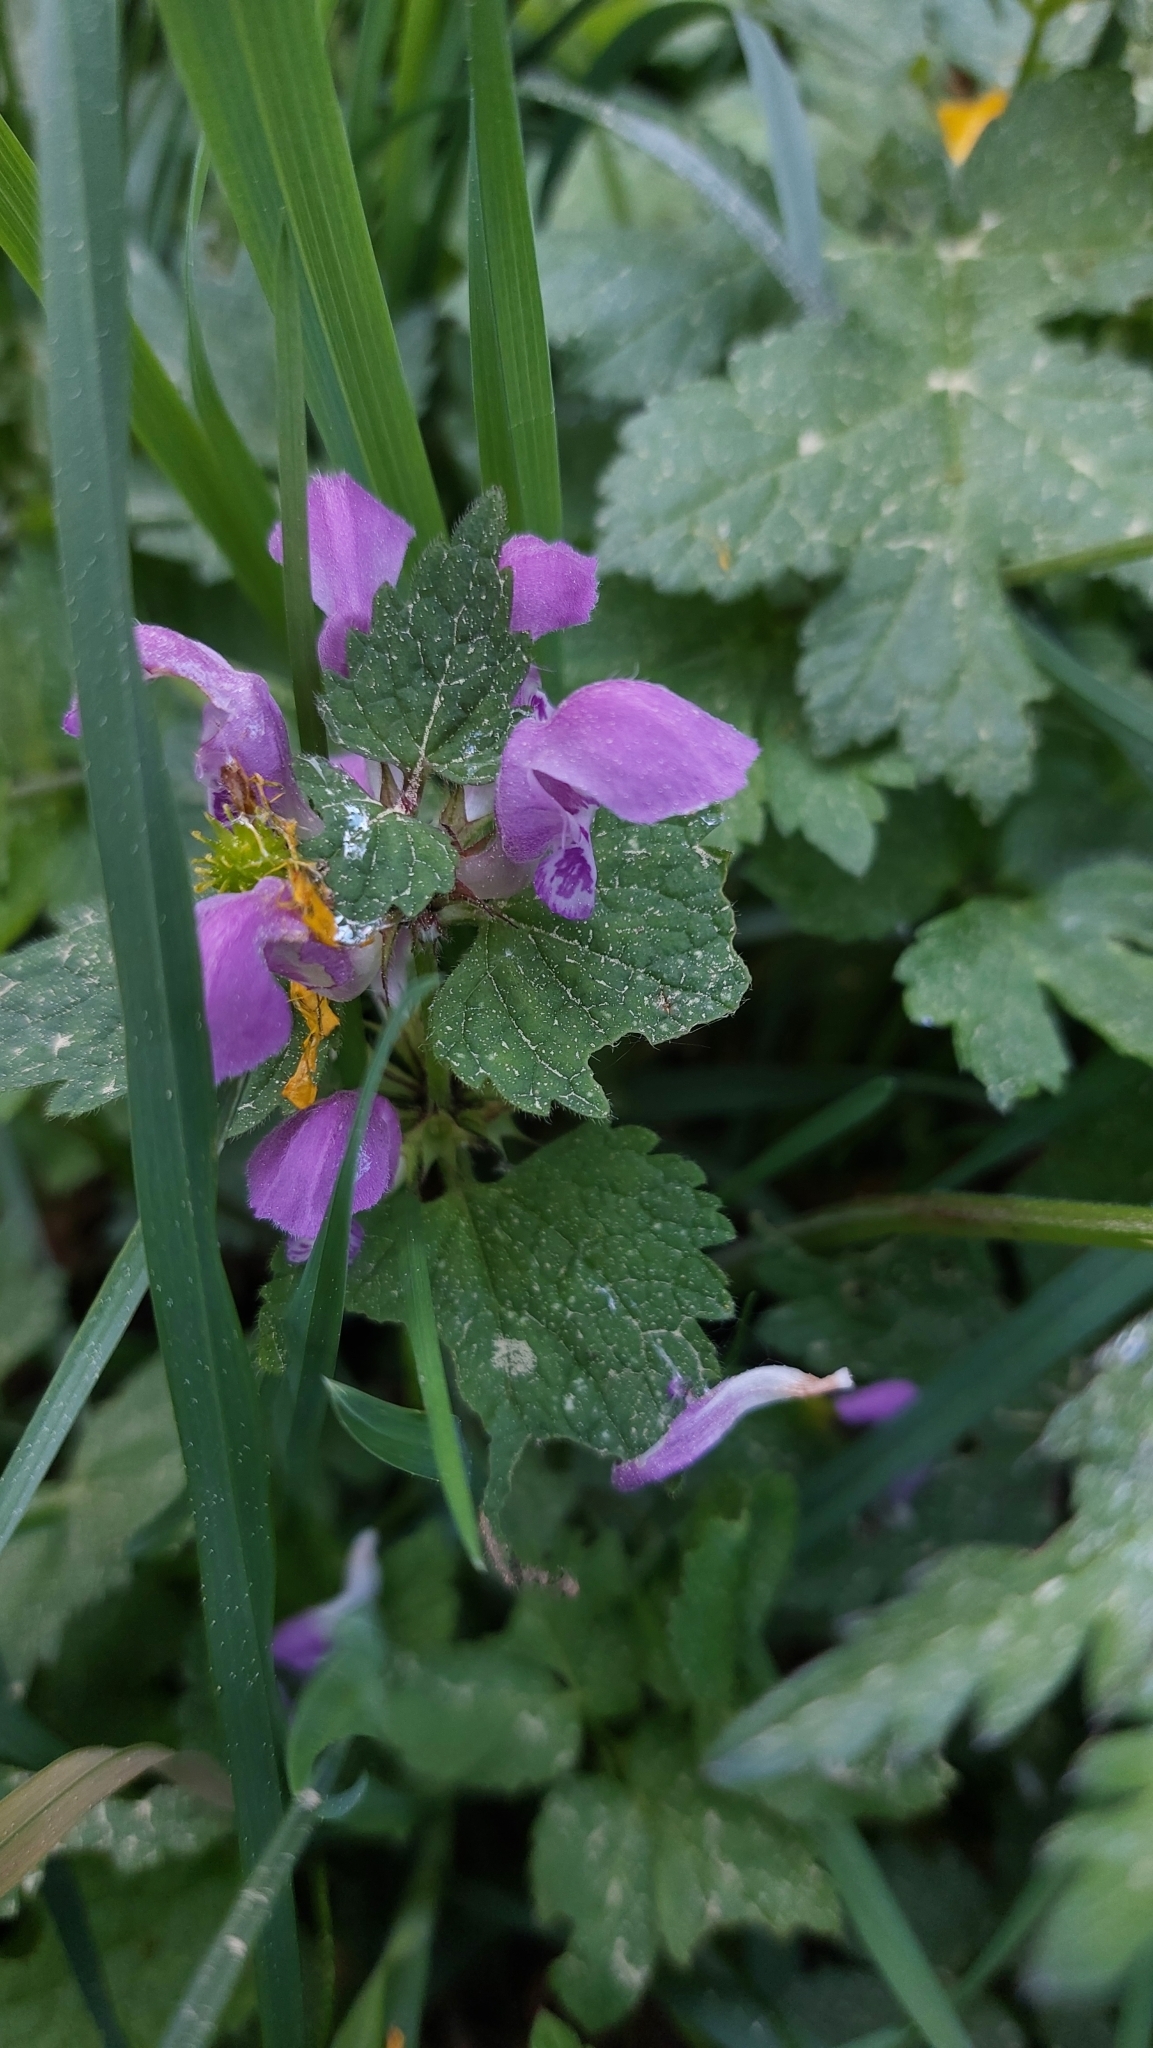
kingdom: Plantae
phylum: Tracheophyta
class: Magnoliopsida
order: Lamiales
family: Lamiaceae
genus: Lamium
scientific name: Lamium maculatum
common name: Spotted dead-nettle
